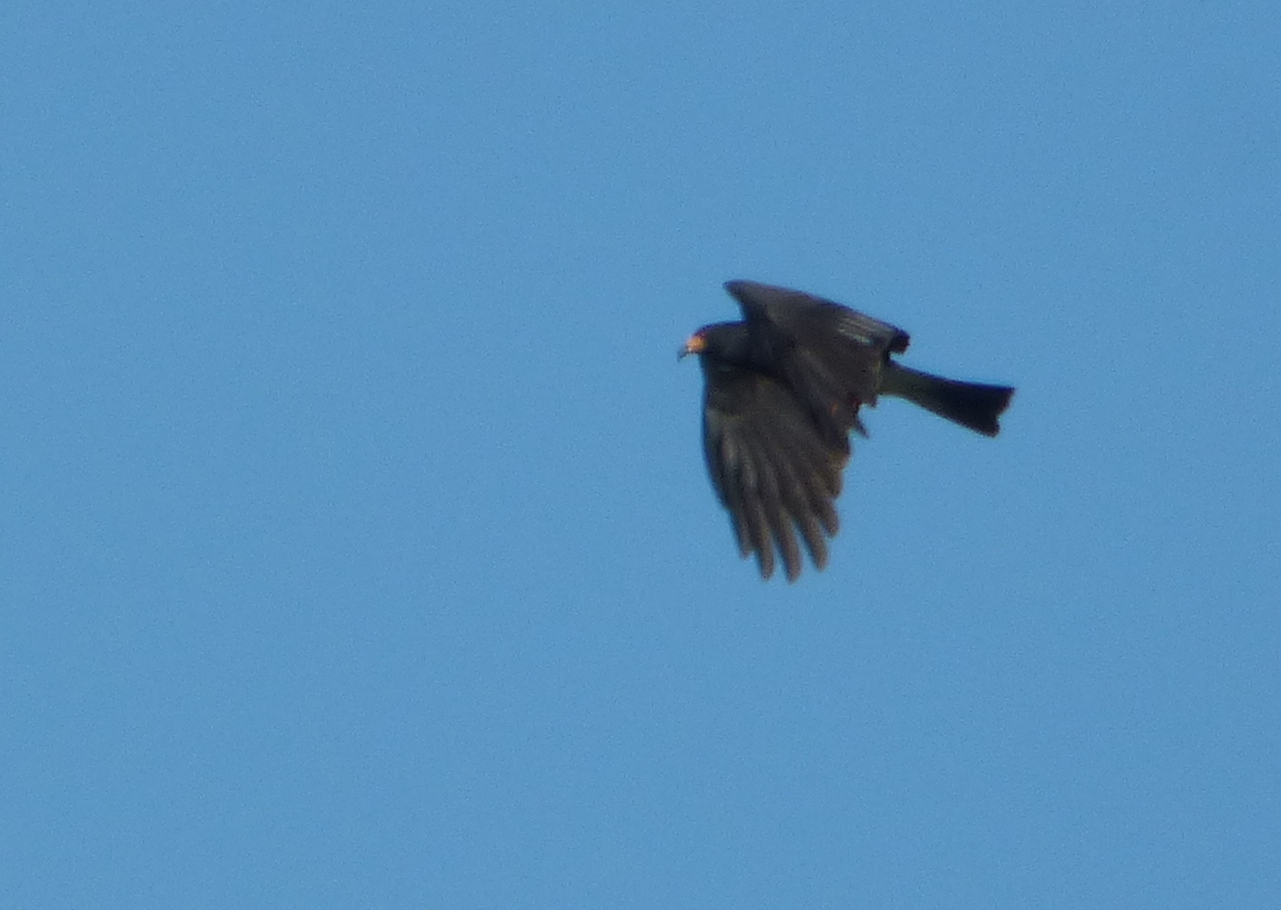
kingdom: Animalia
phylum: Chordata
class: Aves
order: Accipitriformes
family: Accipitridae
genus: Rostrhamus
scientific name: Rostrhamus sociabilis
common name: Snail kite
